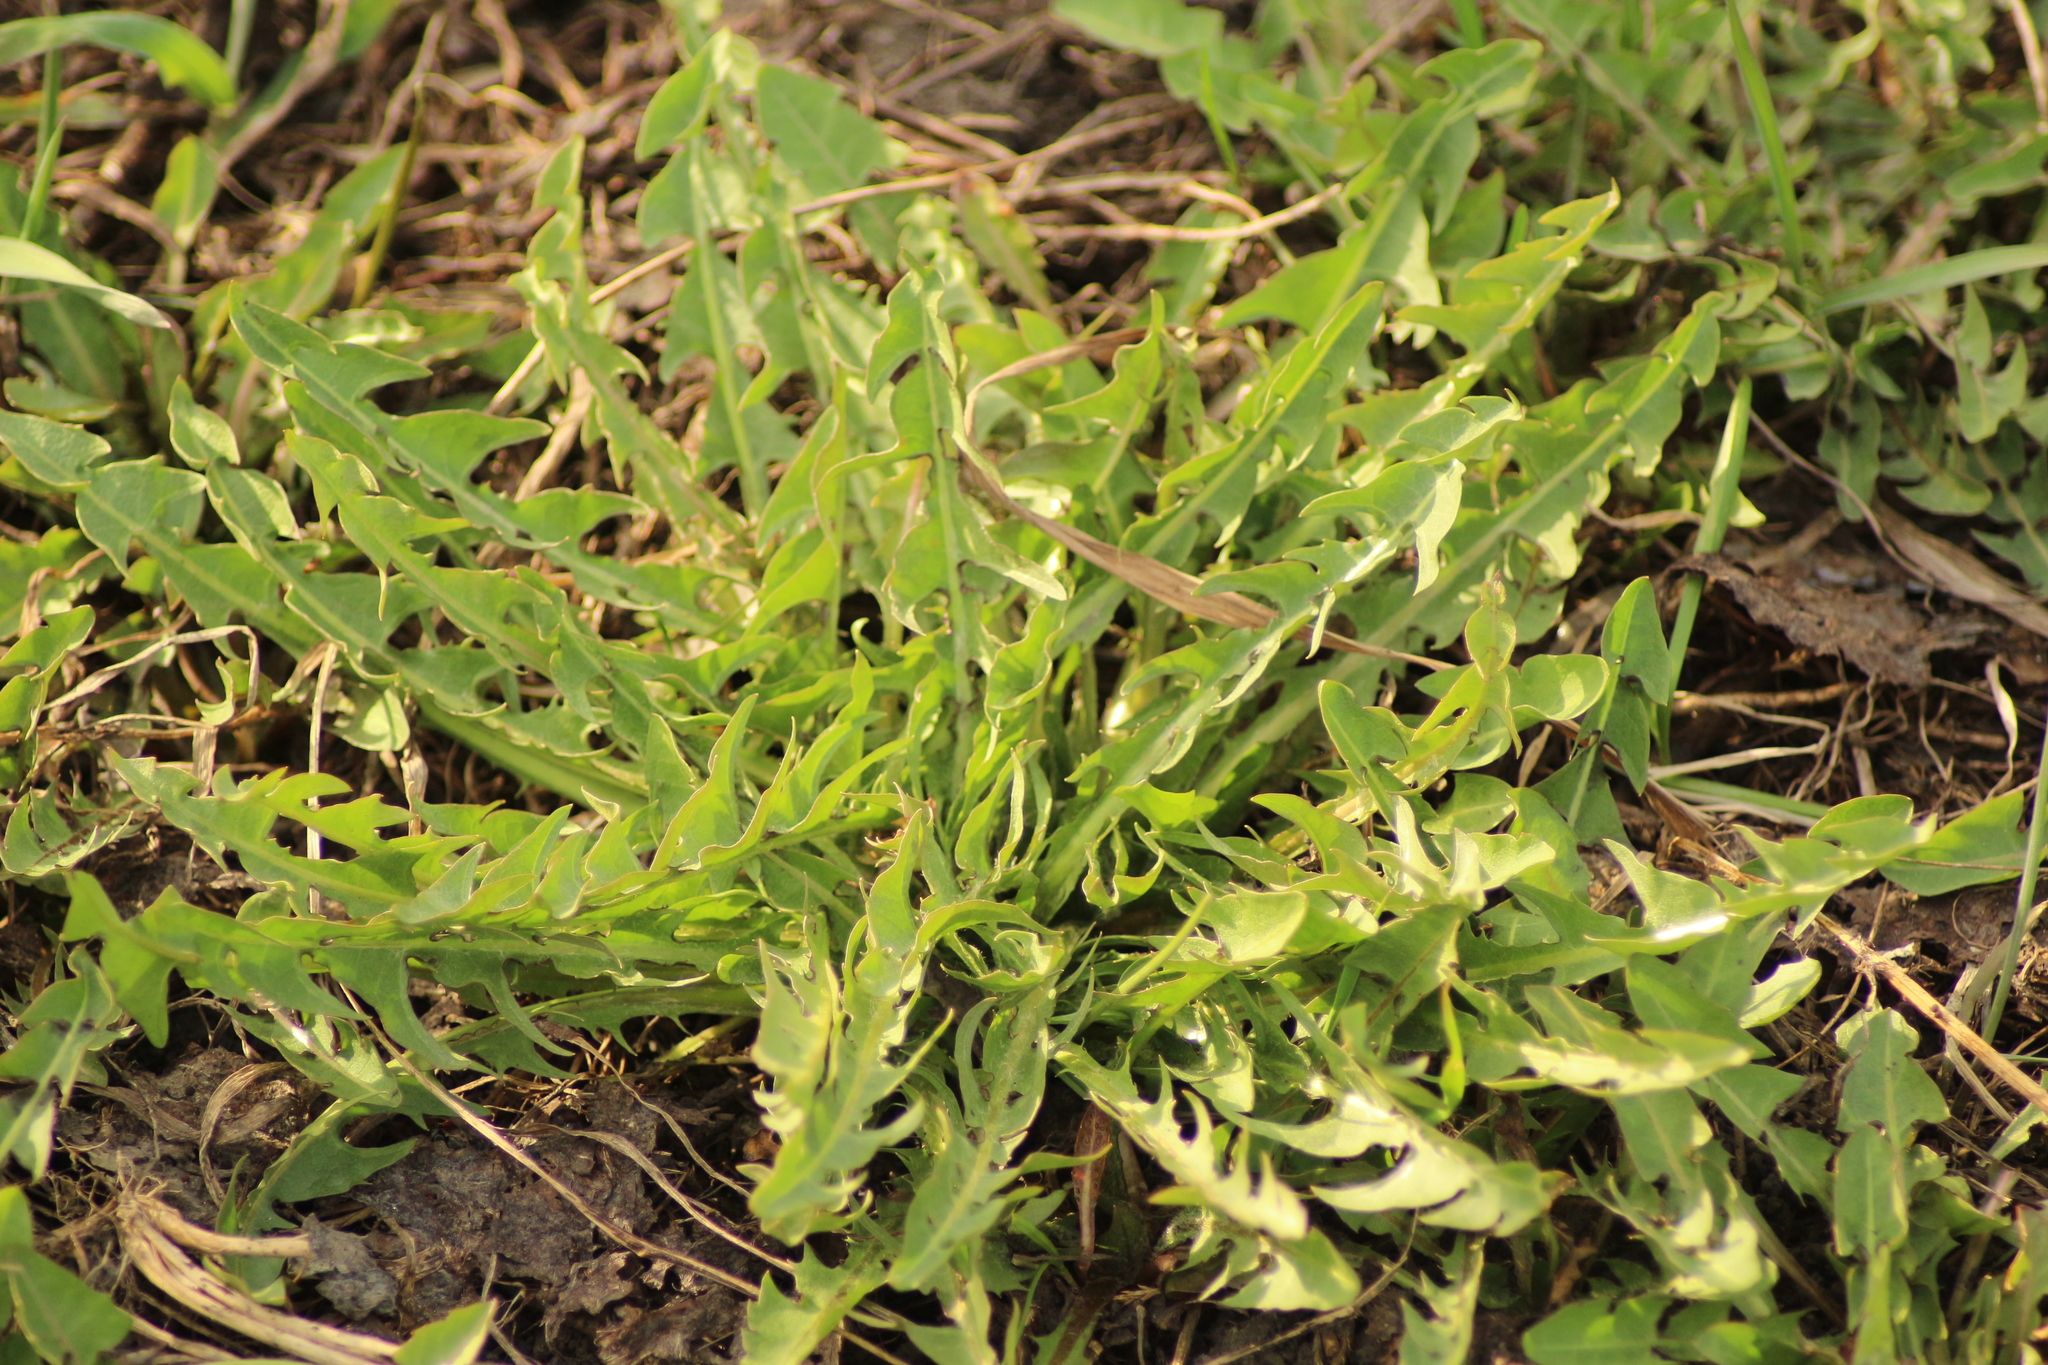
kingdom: Plantae
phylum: Tracheophyta
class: Magnoliopsida
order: Asterales
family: Asteraceae
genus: Taraxacum
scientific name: Taraxacum officinale
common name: Common dandelion
